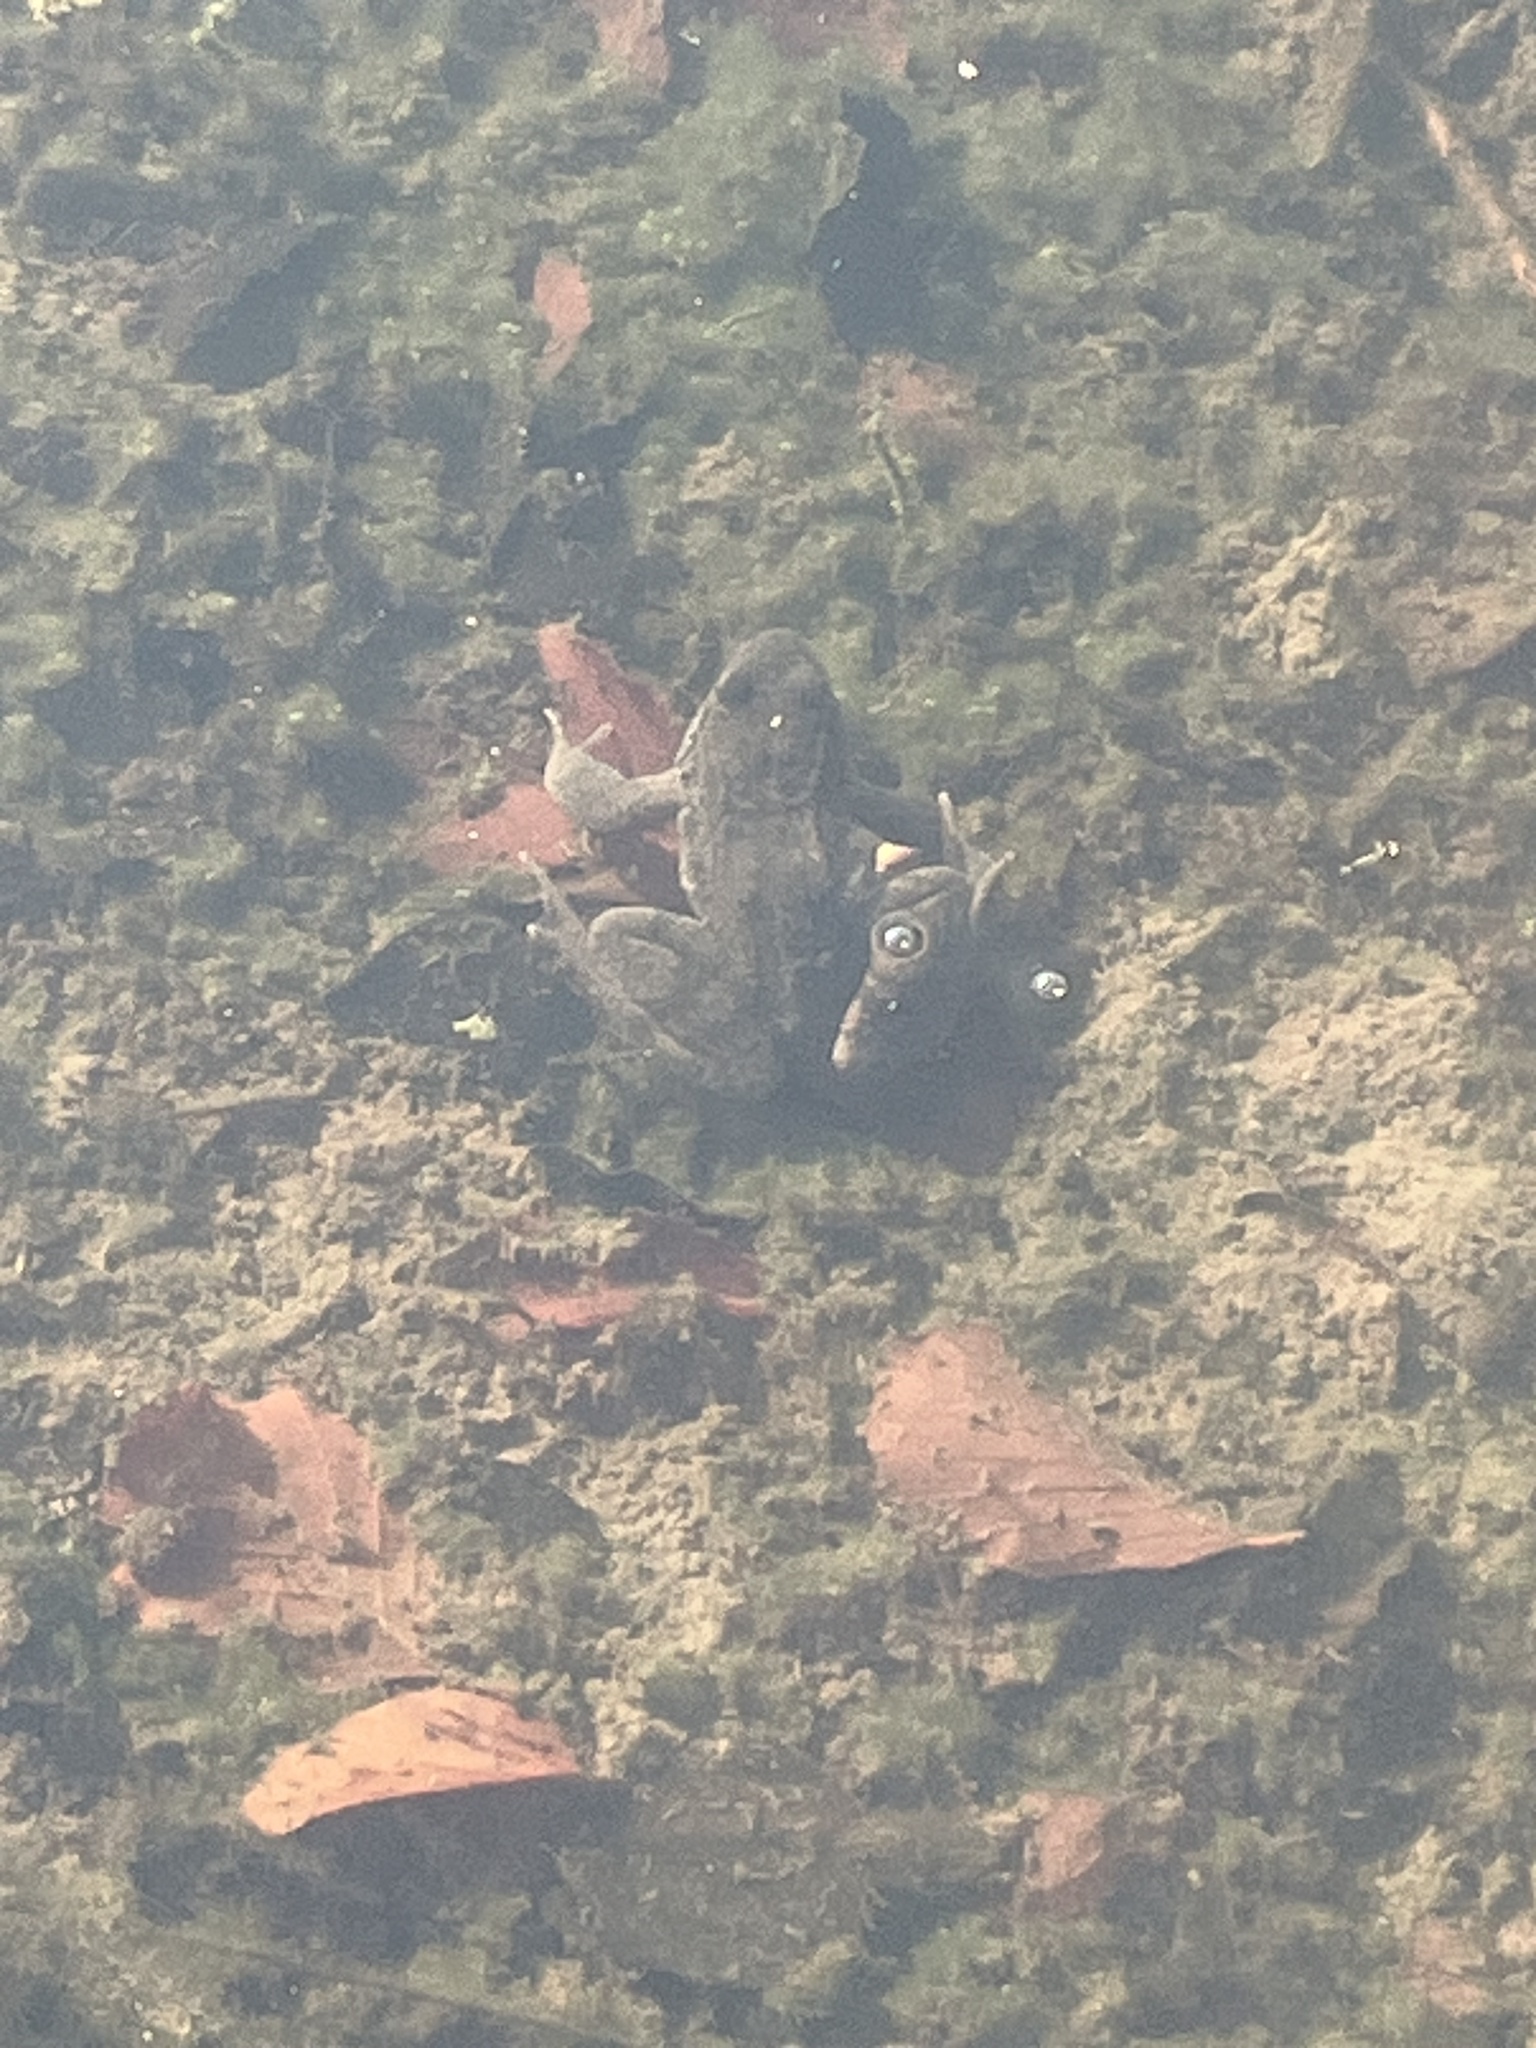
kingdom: Animalia
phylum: Chordata
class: Amphibia
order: Anura
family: Ranidae
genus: Rana
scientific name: Rana temporaria
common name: Common frog
